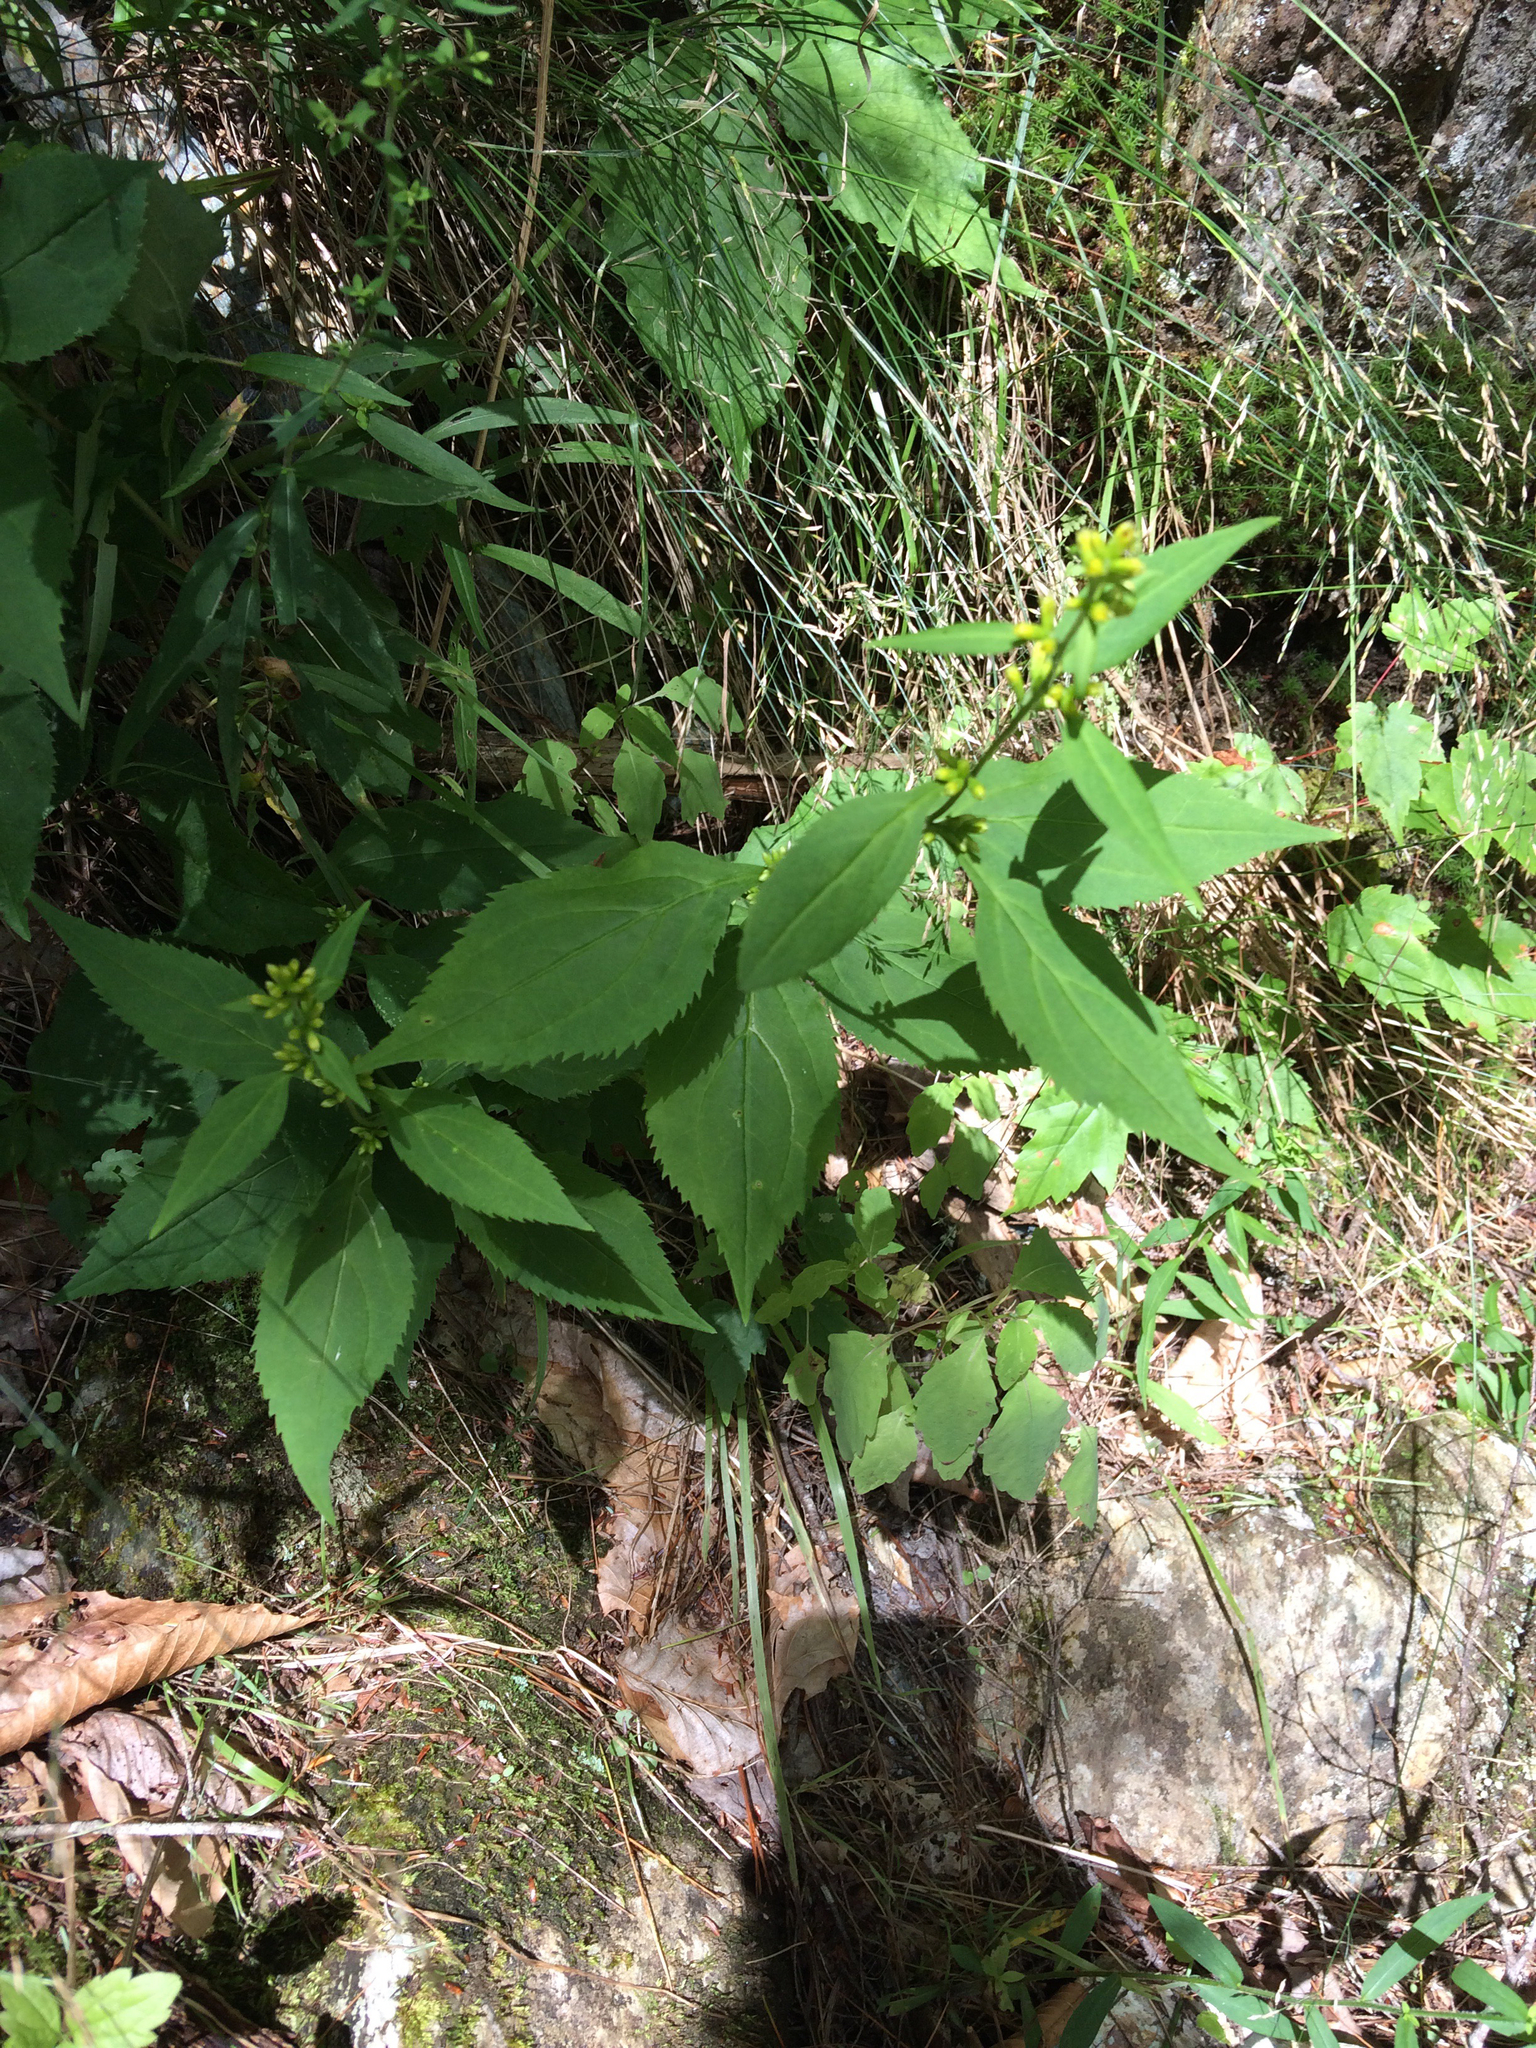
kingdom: Plantae
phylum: Tracheophyta
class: Magnoliopsida
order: Asterales
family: Asteraceae
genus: Solidago
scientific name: Solidago flexicaulis
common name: Zig-zag goldenrod
